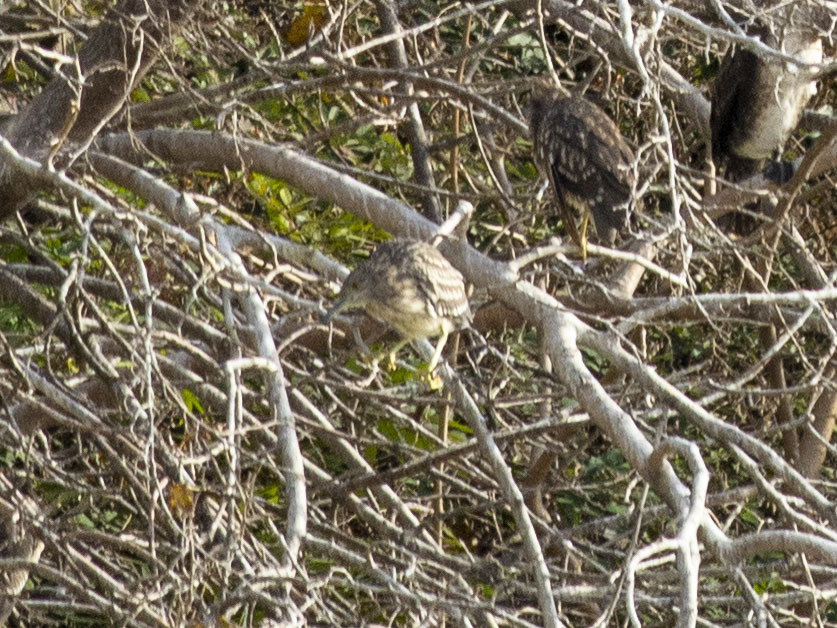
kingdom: Animalia
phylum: Chordata
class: Aves
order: Pelecaniformes
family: Ardeidae
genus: Nycticorax
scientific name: Nycticorax nycticorax
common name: Black-crowned night heron
